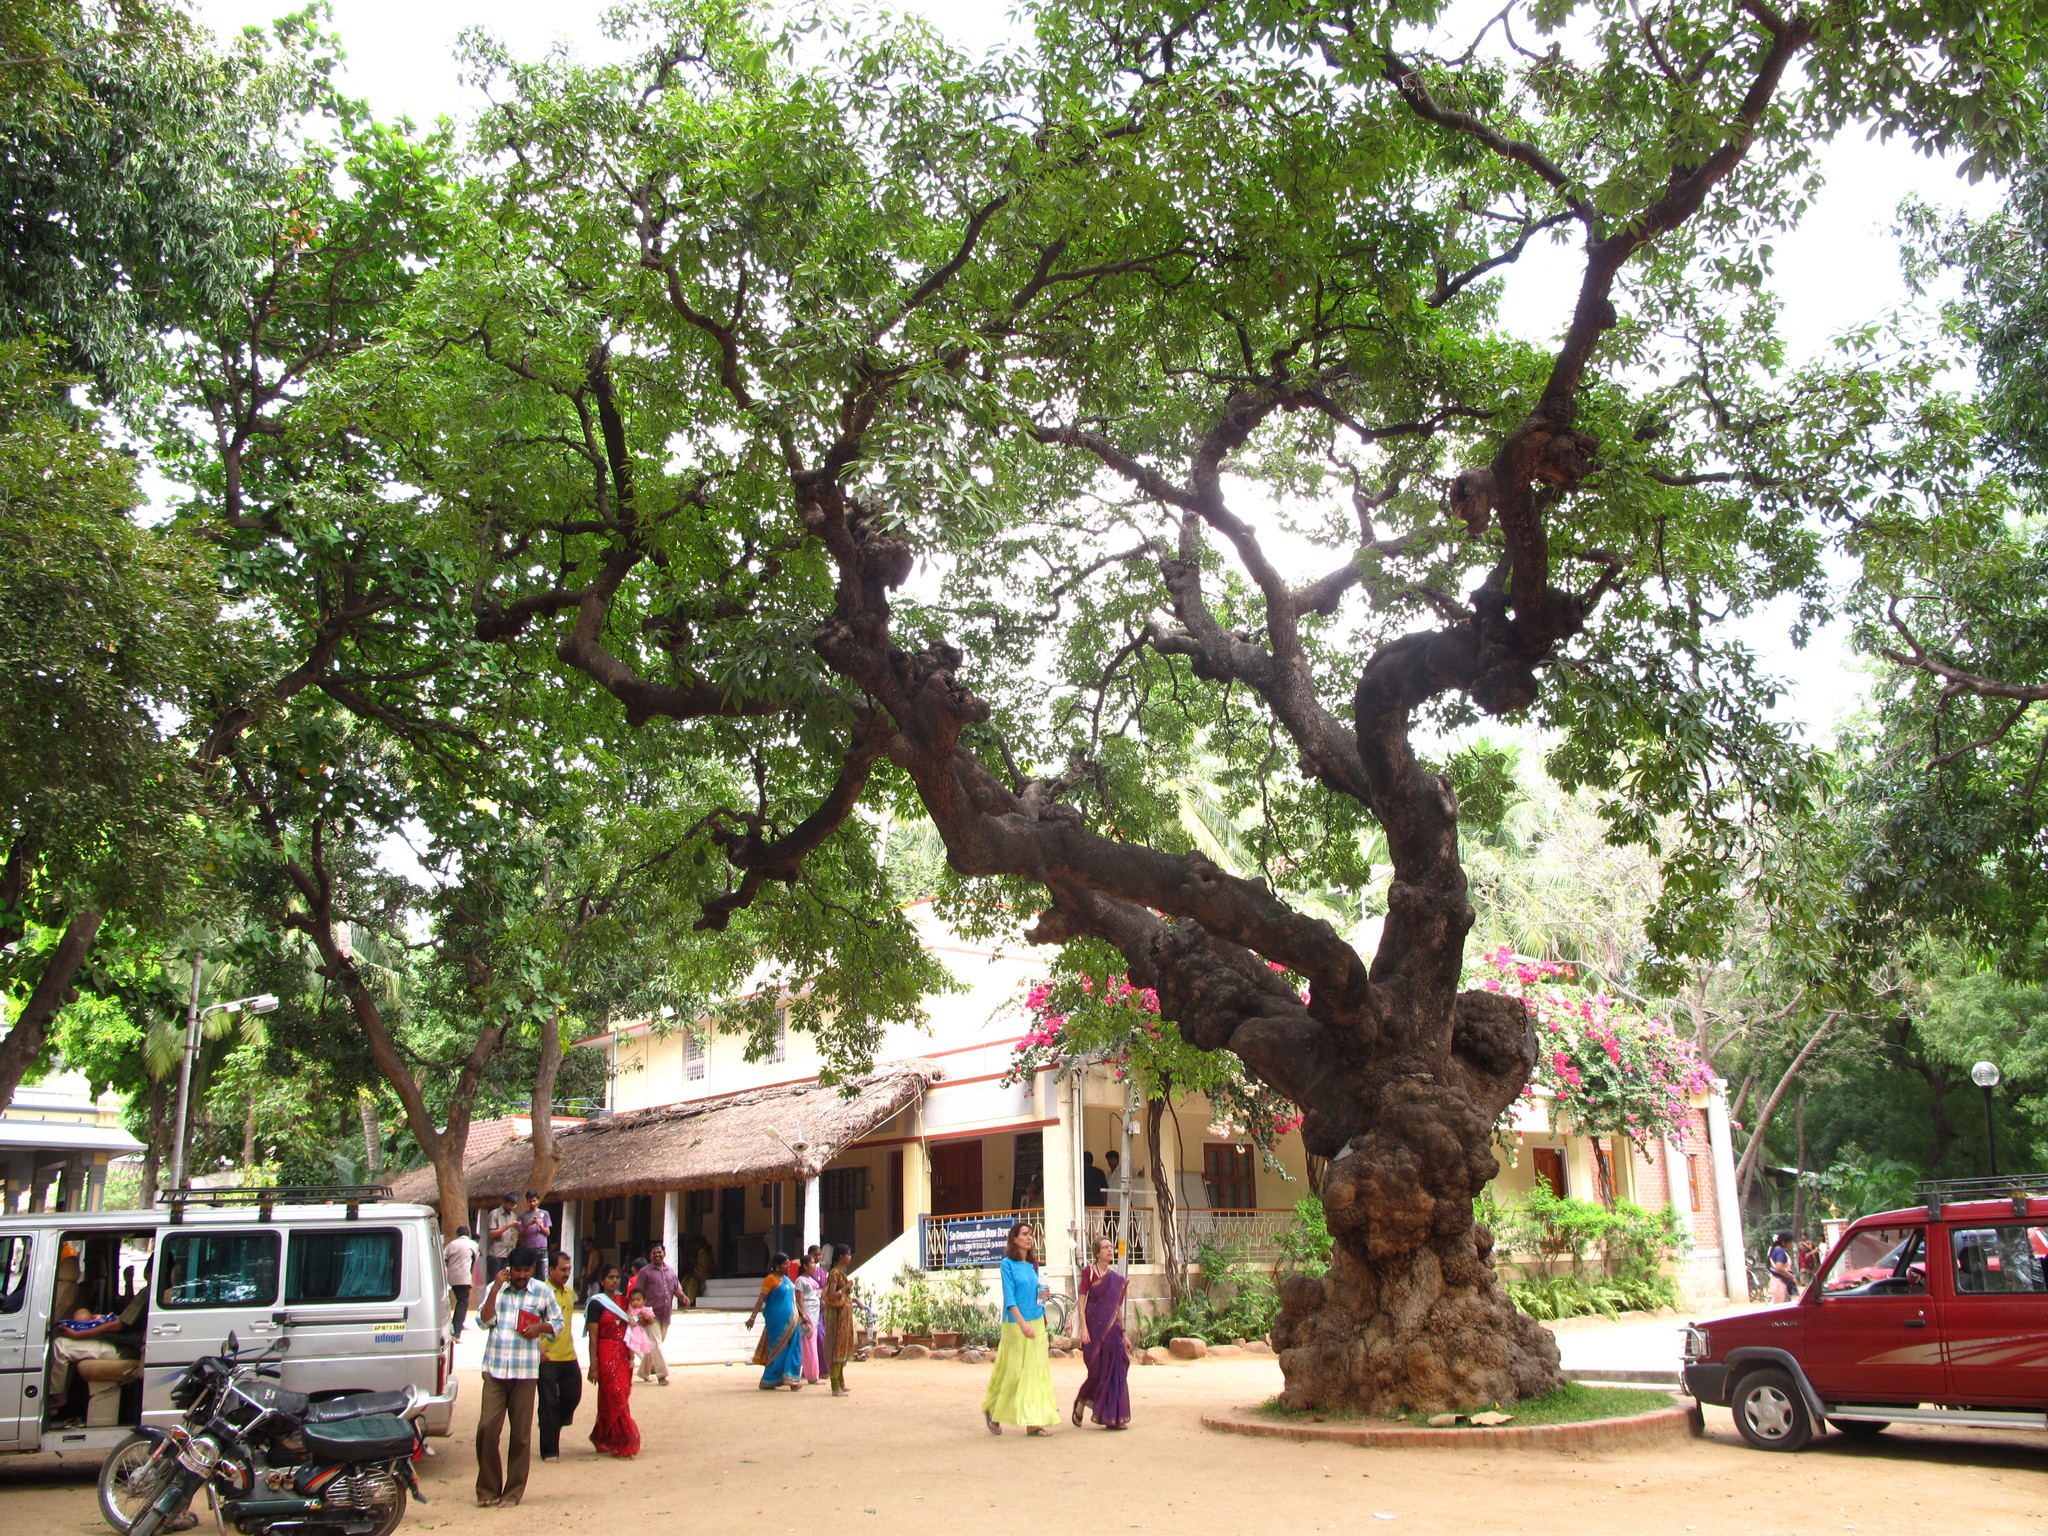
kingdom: Plantae
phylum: Tracheophyta
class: Magnoliopsida
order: Ericales
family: Sapotaceae
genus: Madhuca
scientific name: Madhuca longifolia
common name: Mowra-buttertree
